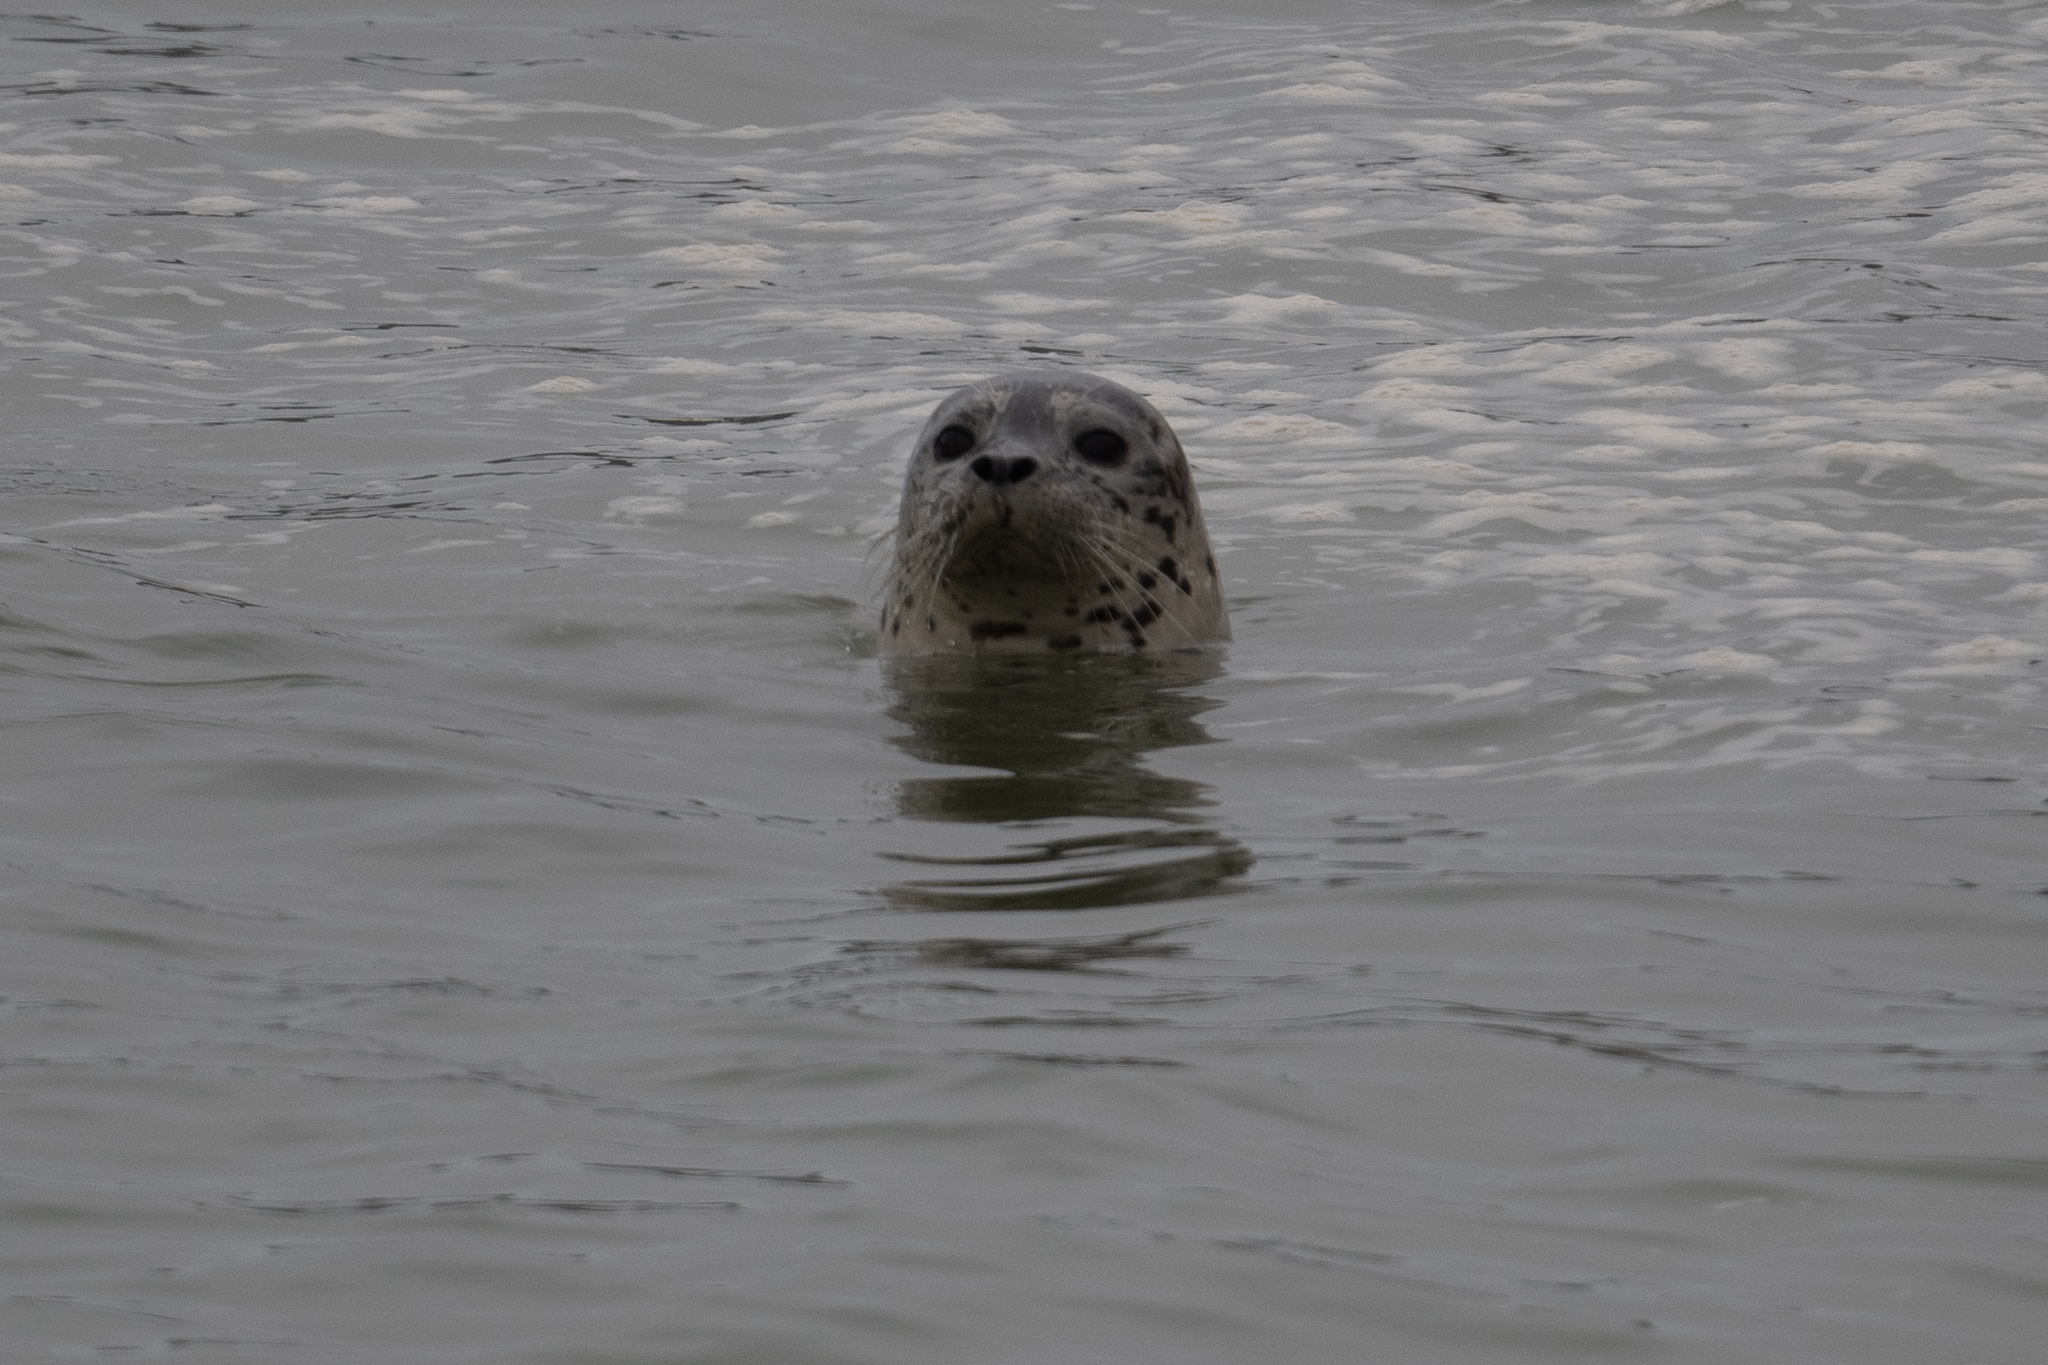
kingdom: Animalia
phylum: Chordata
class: Mammalia
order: Carnivora
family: Phocidae
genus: Phoca
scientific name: Phoca vitulina
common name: Harbor seal
